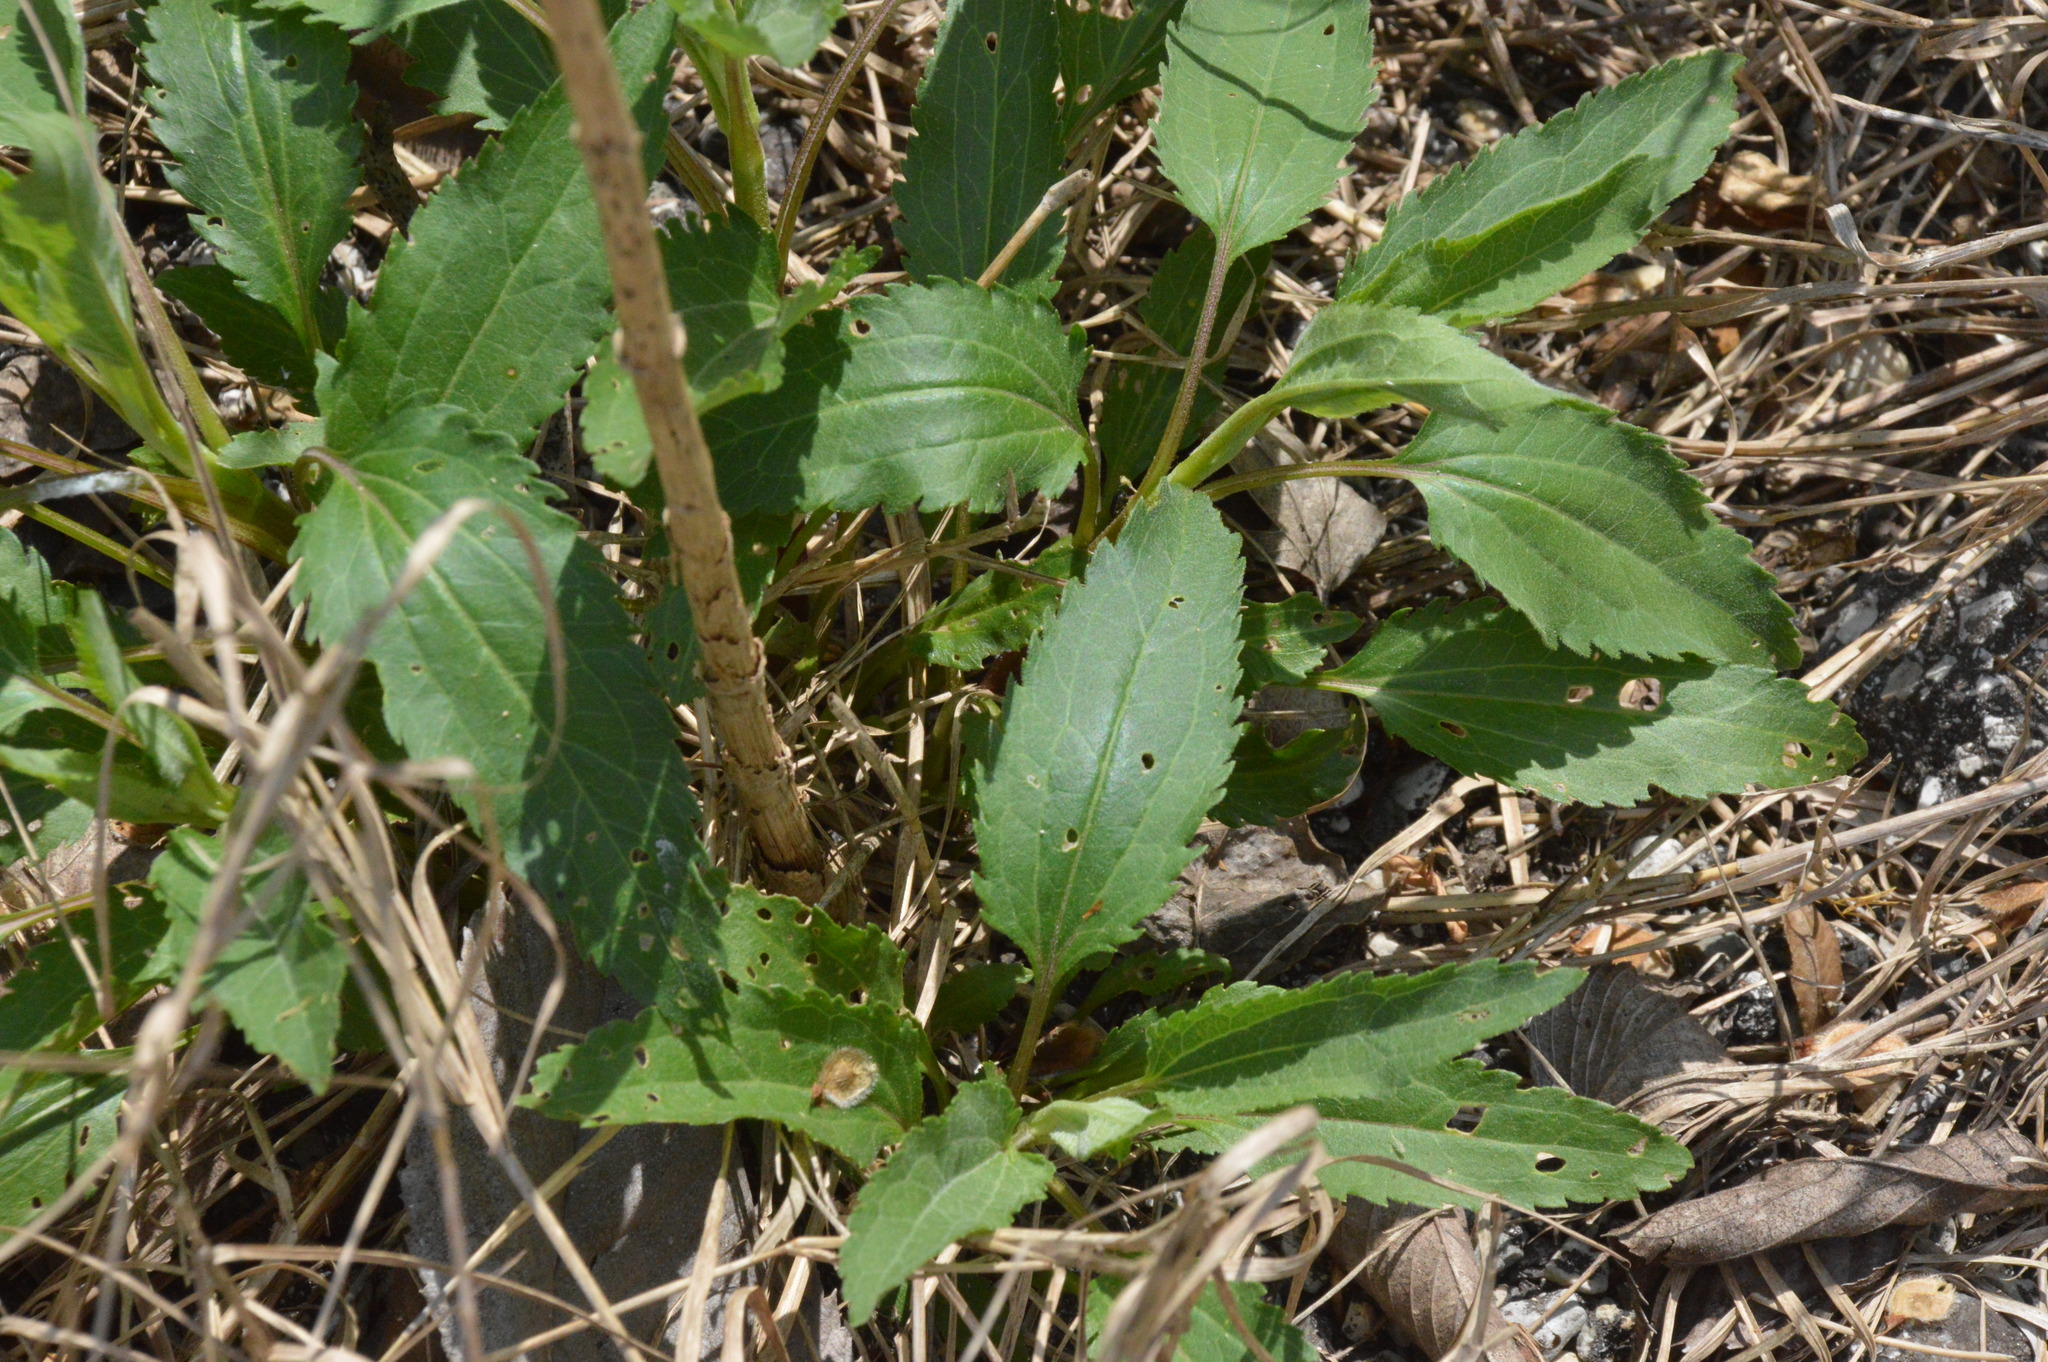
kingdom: Plantae
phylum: Tracheophyta
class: Magnoliopsida
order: Asterales
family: Asteraceae
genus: Eupatorium
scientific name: Eupatorium serotinum
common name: Late boneset
